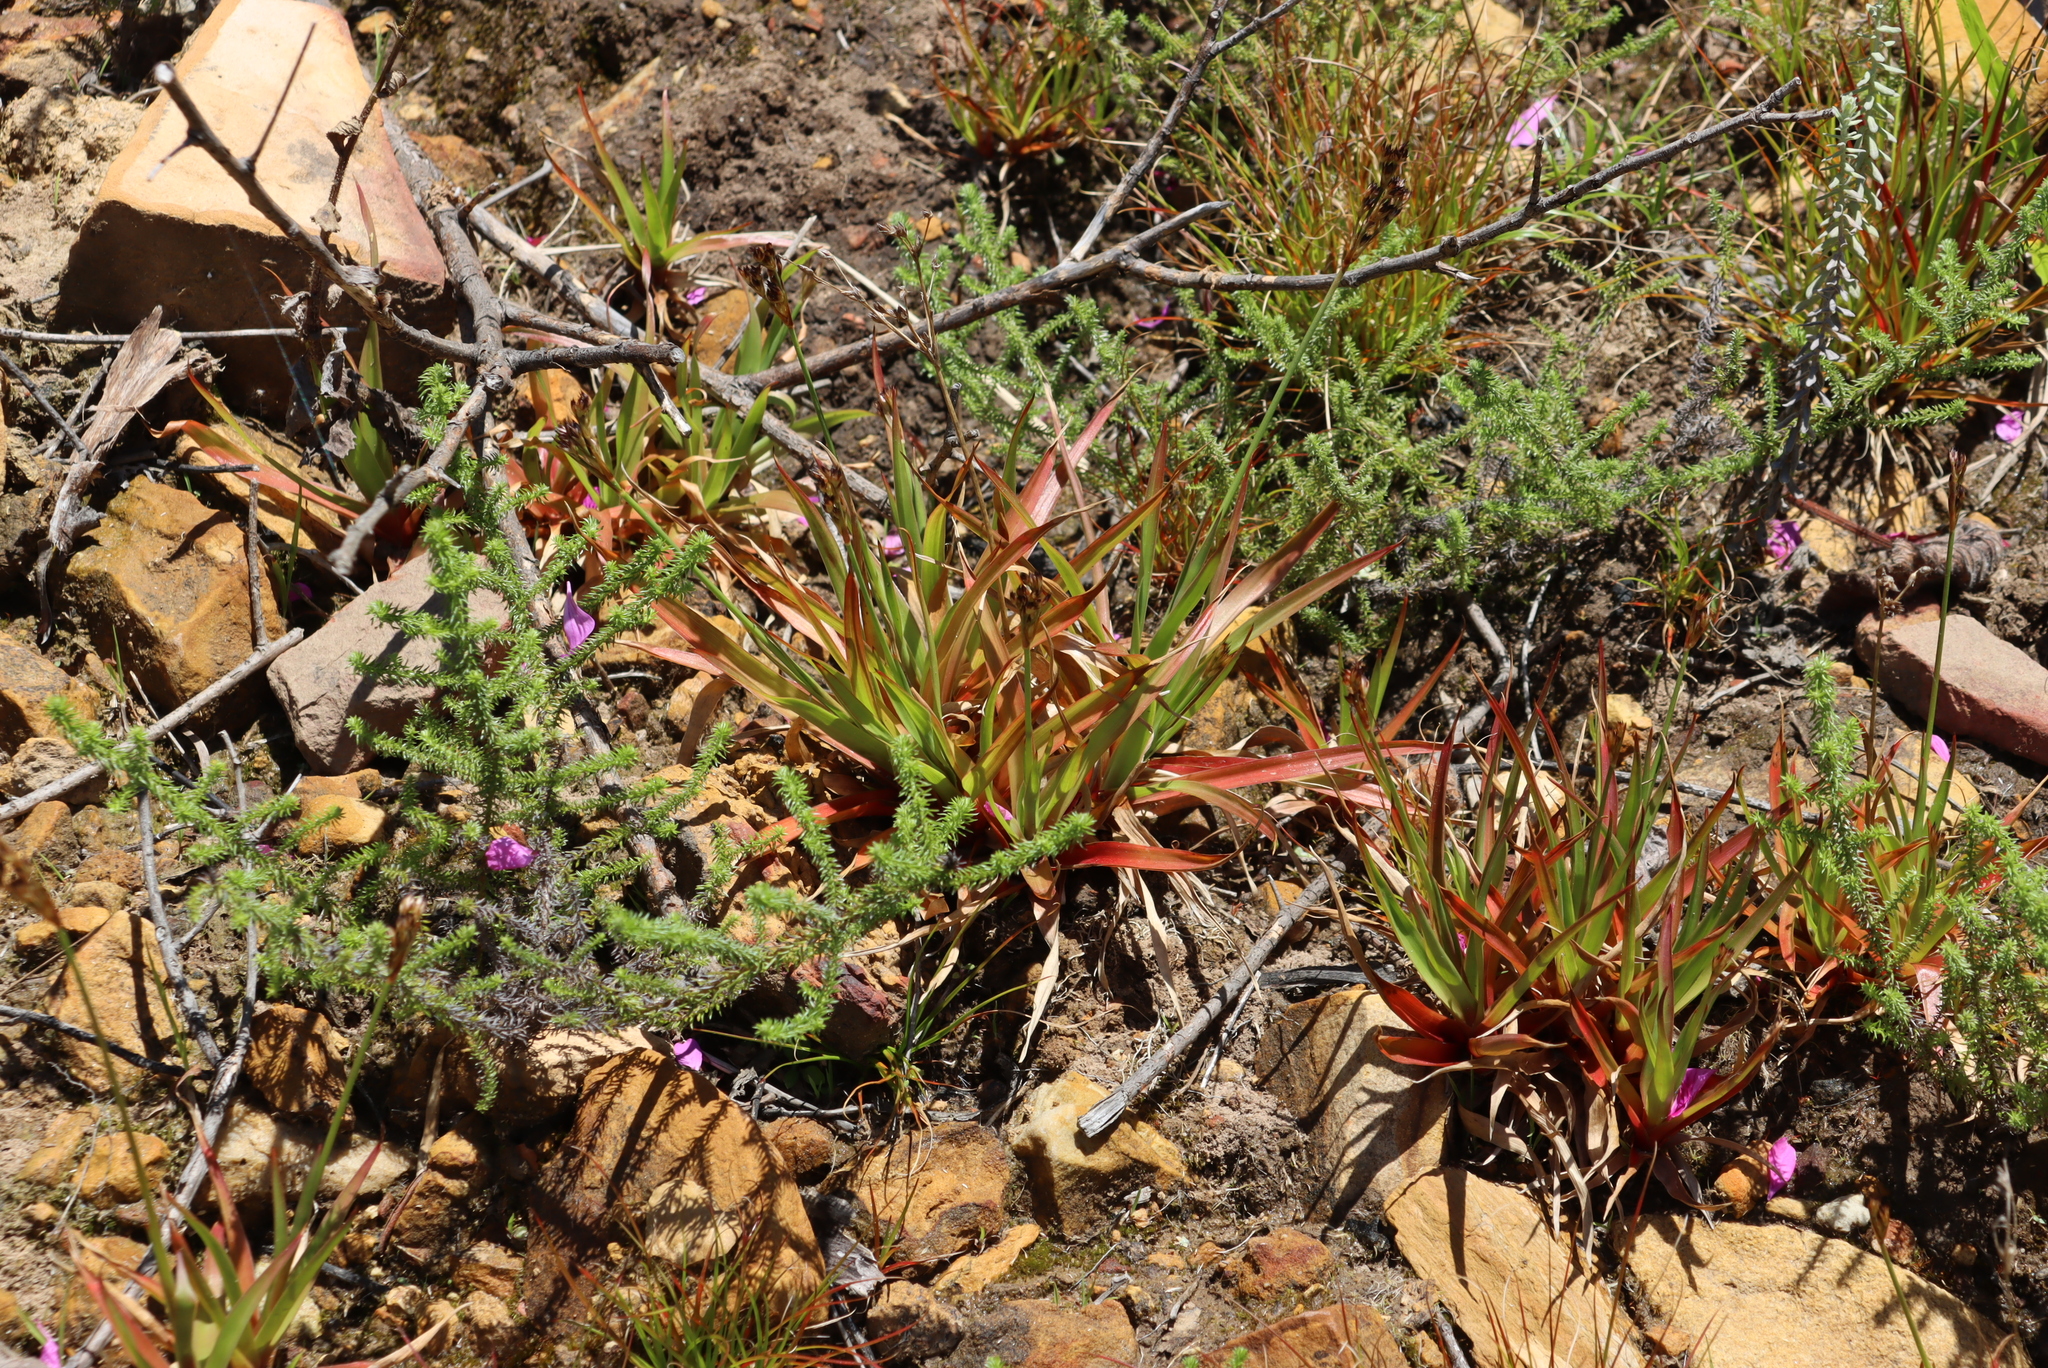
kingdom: Plantae
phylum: Tracheophyta
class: Liliopsida
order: Poales
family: Juncaceae
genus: Juncus
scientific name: Juncus lomatophyllus
